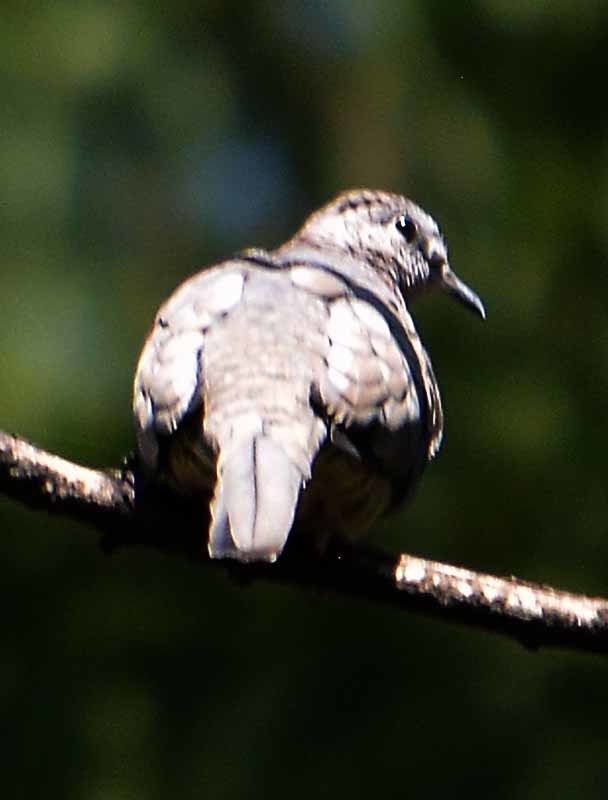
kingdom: Animalia
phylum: Chordata
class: Aves
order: Columbiformes
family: Columbidae
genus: Columbina
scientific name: Columbina inca
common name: Inca dove
